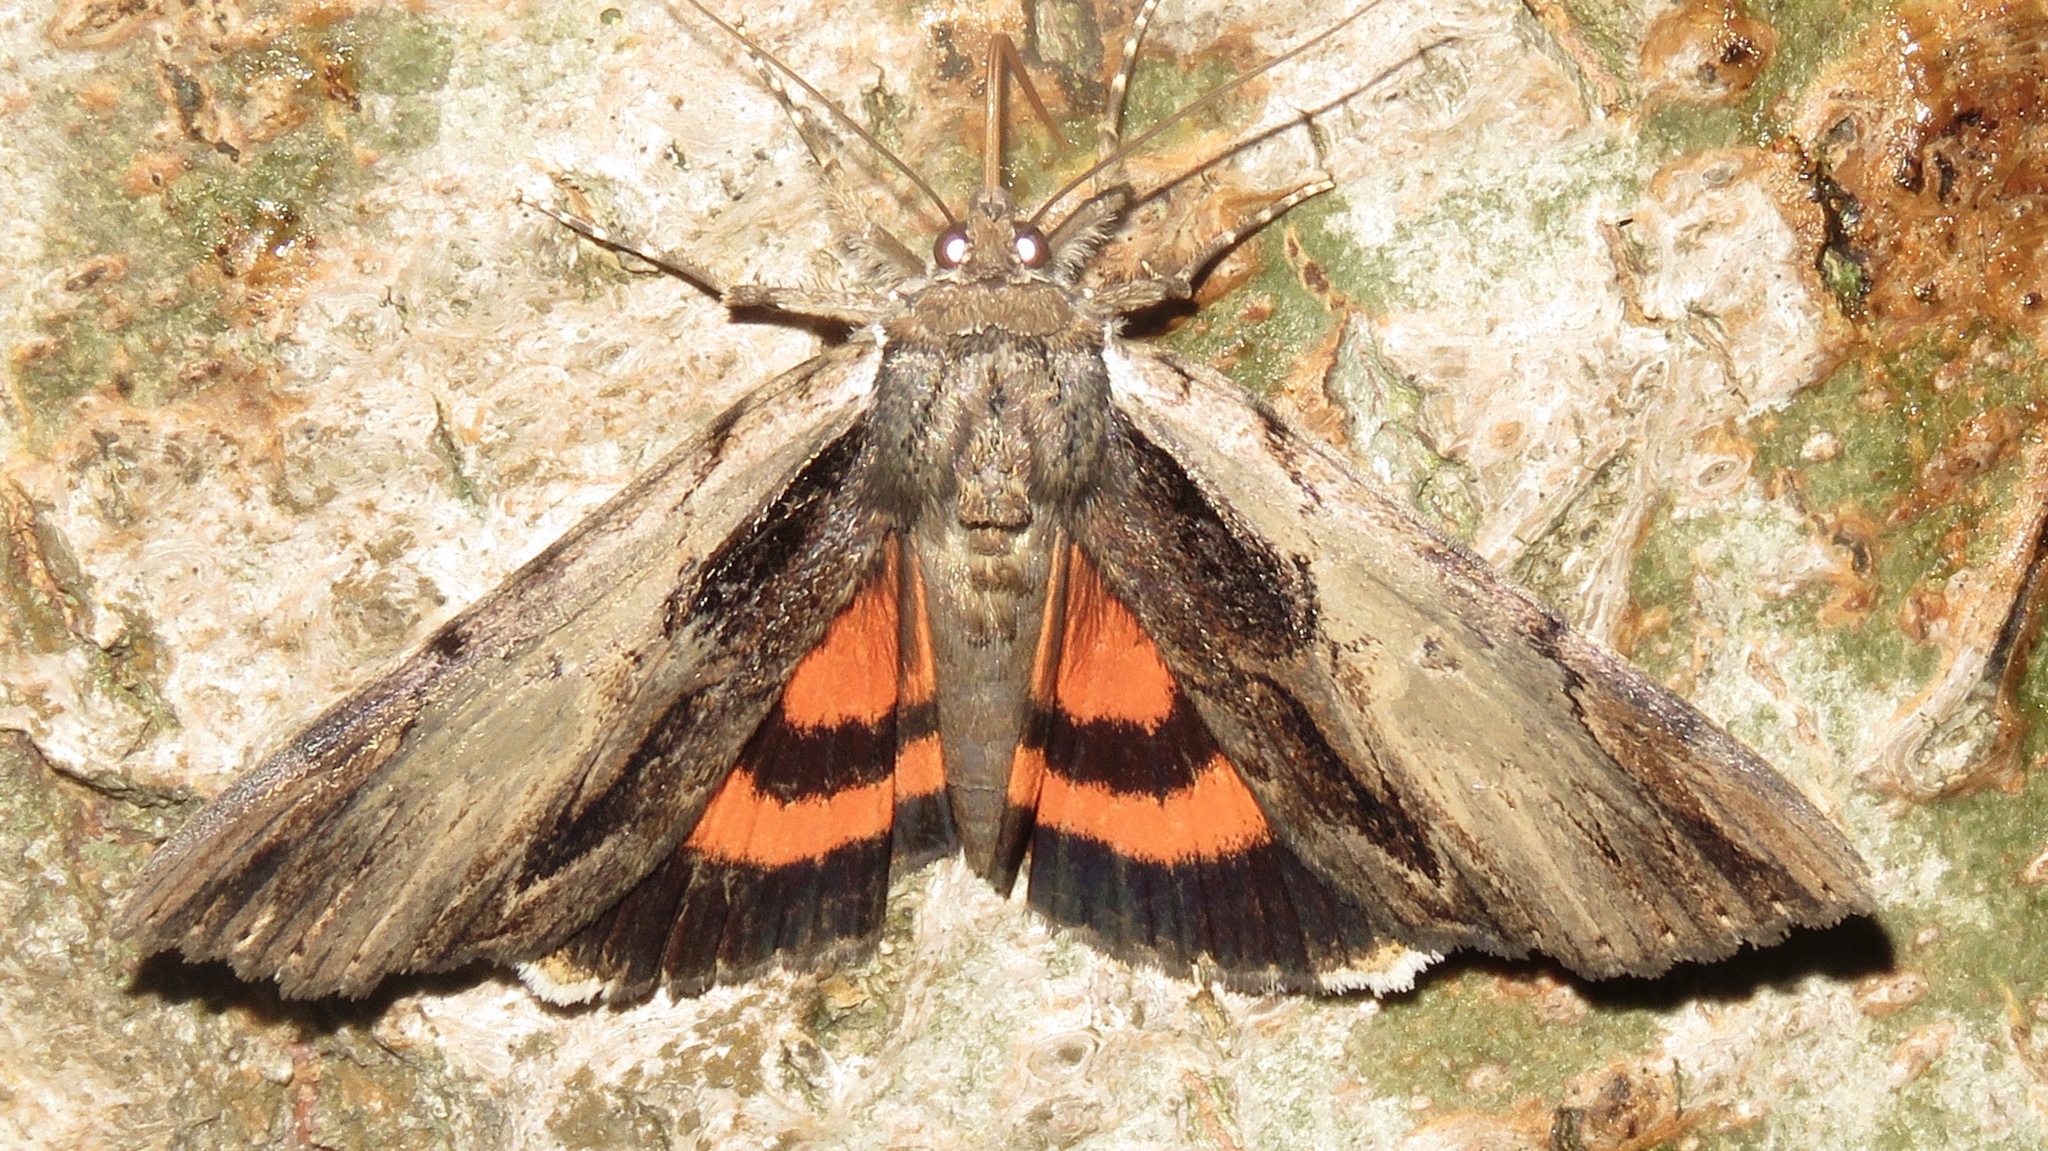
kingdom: Animalia
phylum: Arthropoda
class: Insecta
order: Lepidoptera
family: Erebidae
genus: Catocala
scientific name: Catocala ultronia
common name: Ultronia underwing
